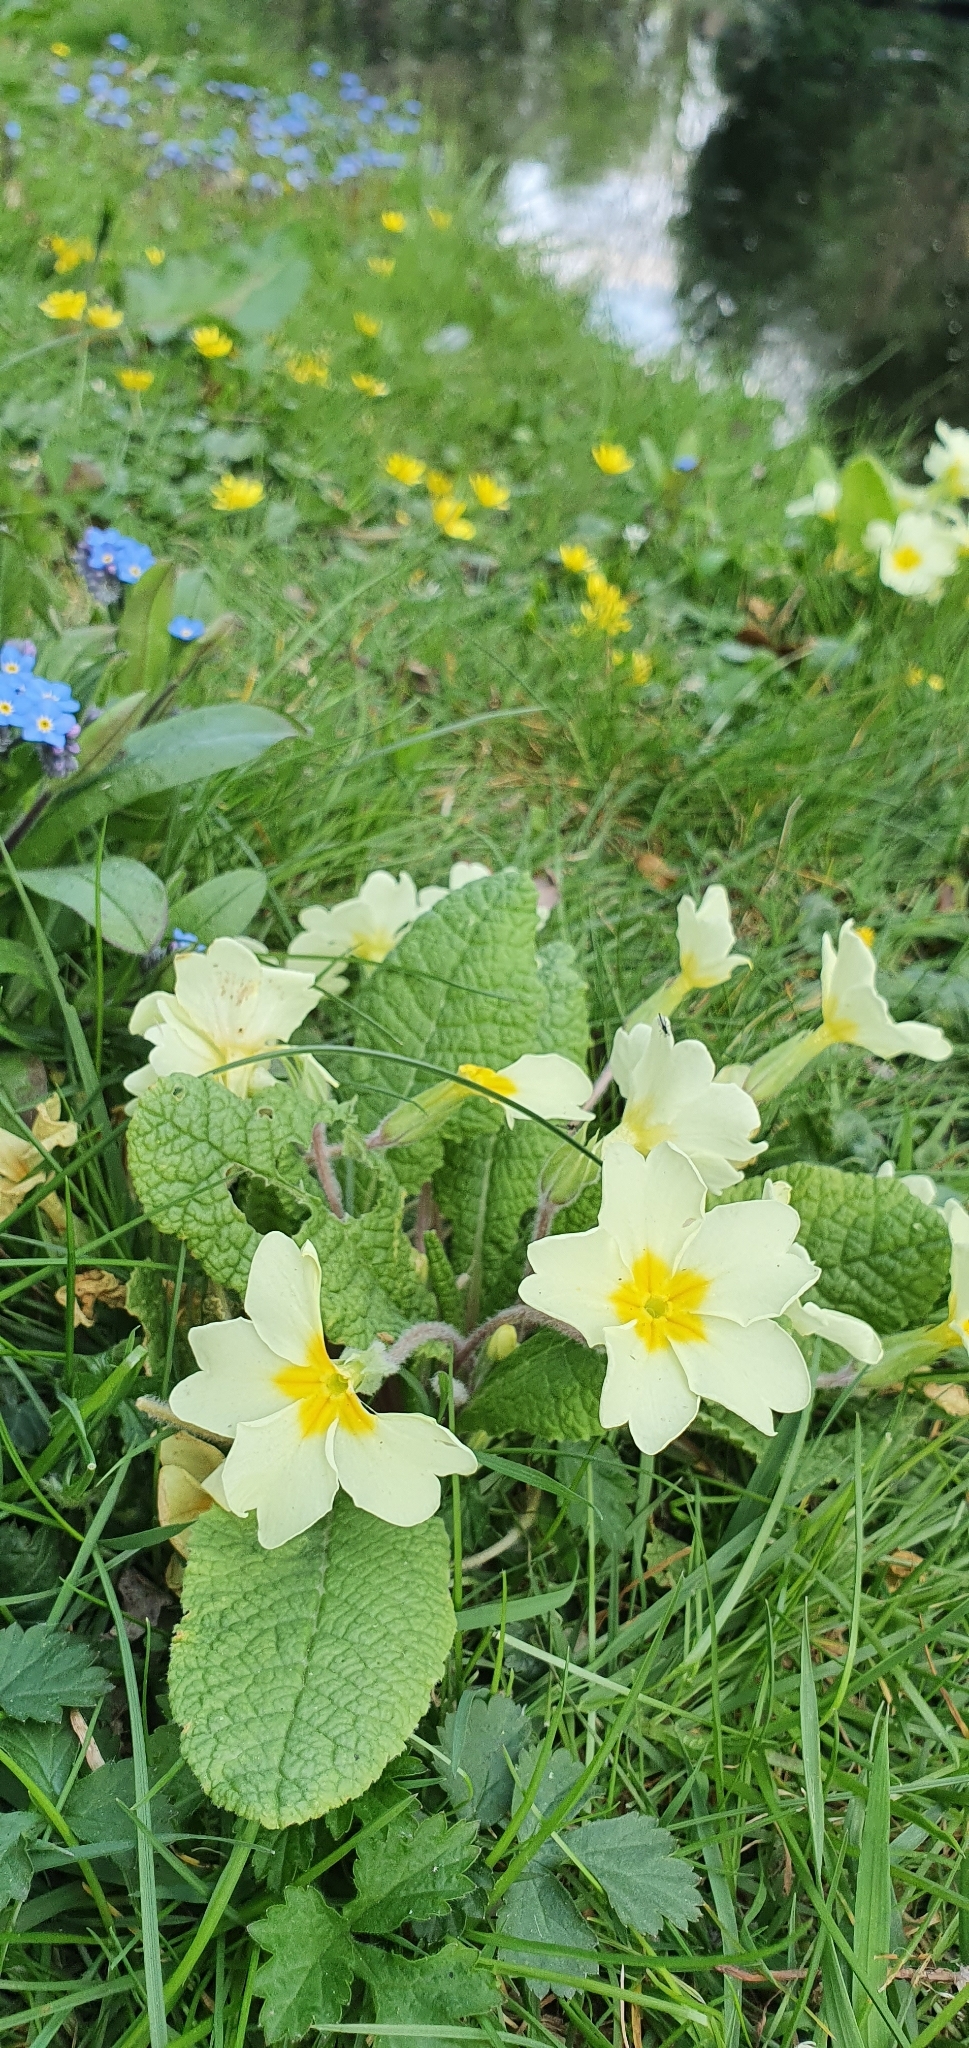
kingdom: Plantae
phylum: Tracheophyta
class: Magnoliopsida
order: Ericales
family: Primulaceae
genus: Primula
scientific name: Primula vulgaris
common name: Primrose
